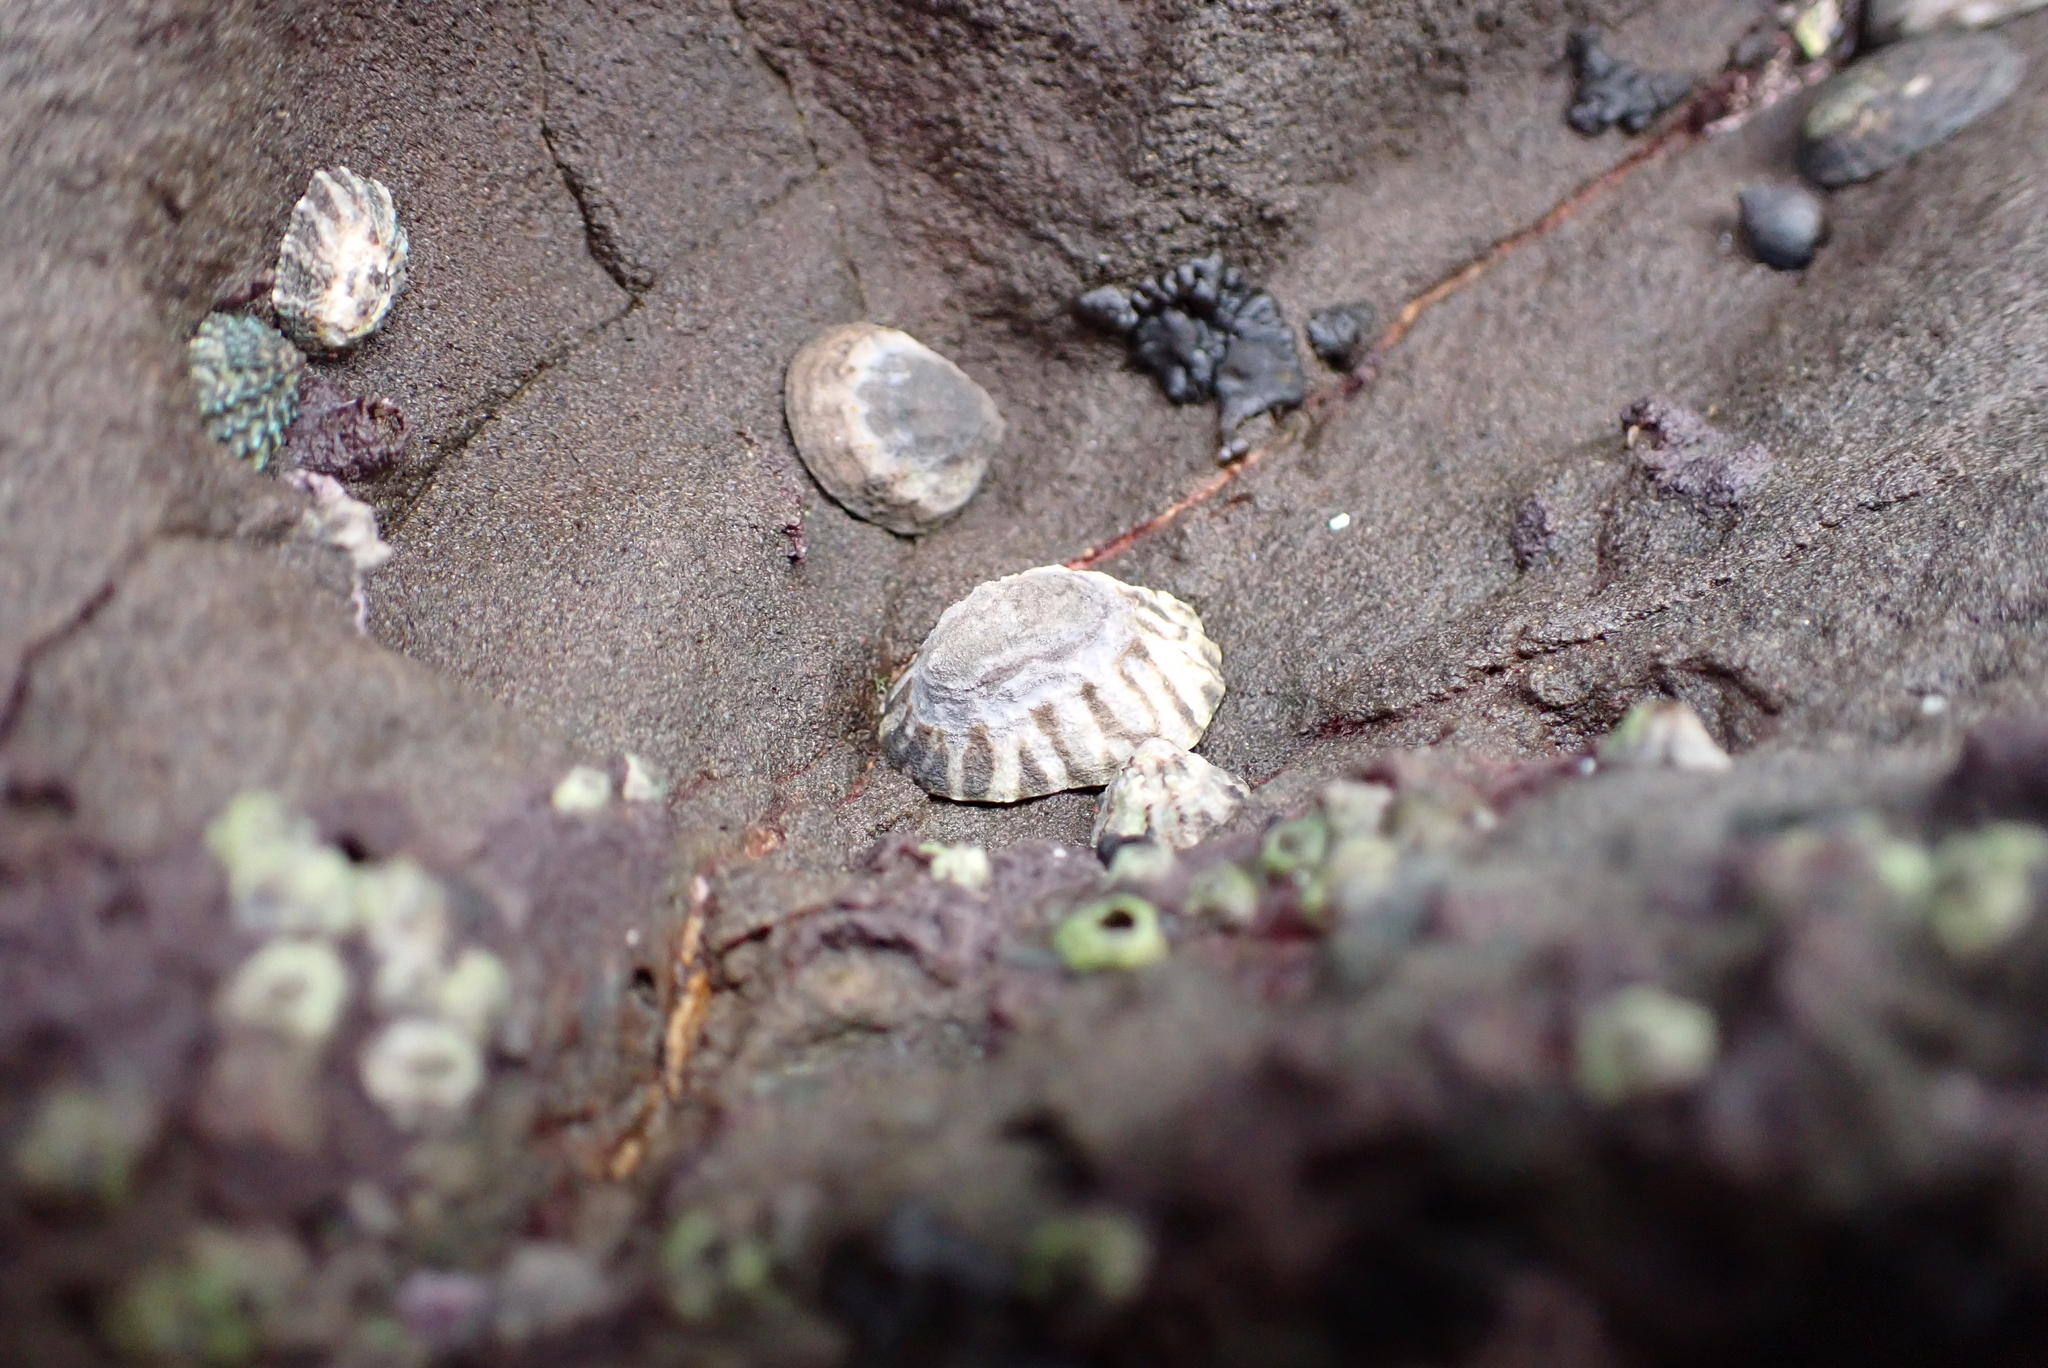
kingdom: Animalia
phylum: Mollusca
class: Gastropoda
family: Lottiidae
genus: Lottia
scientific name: Lottia digitalis
